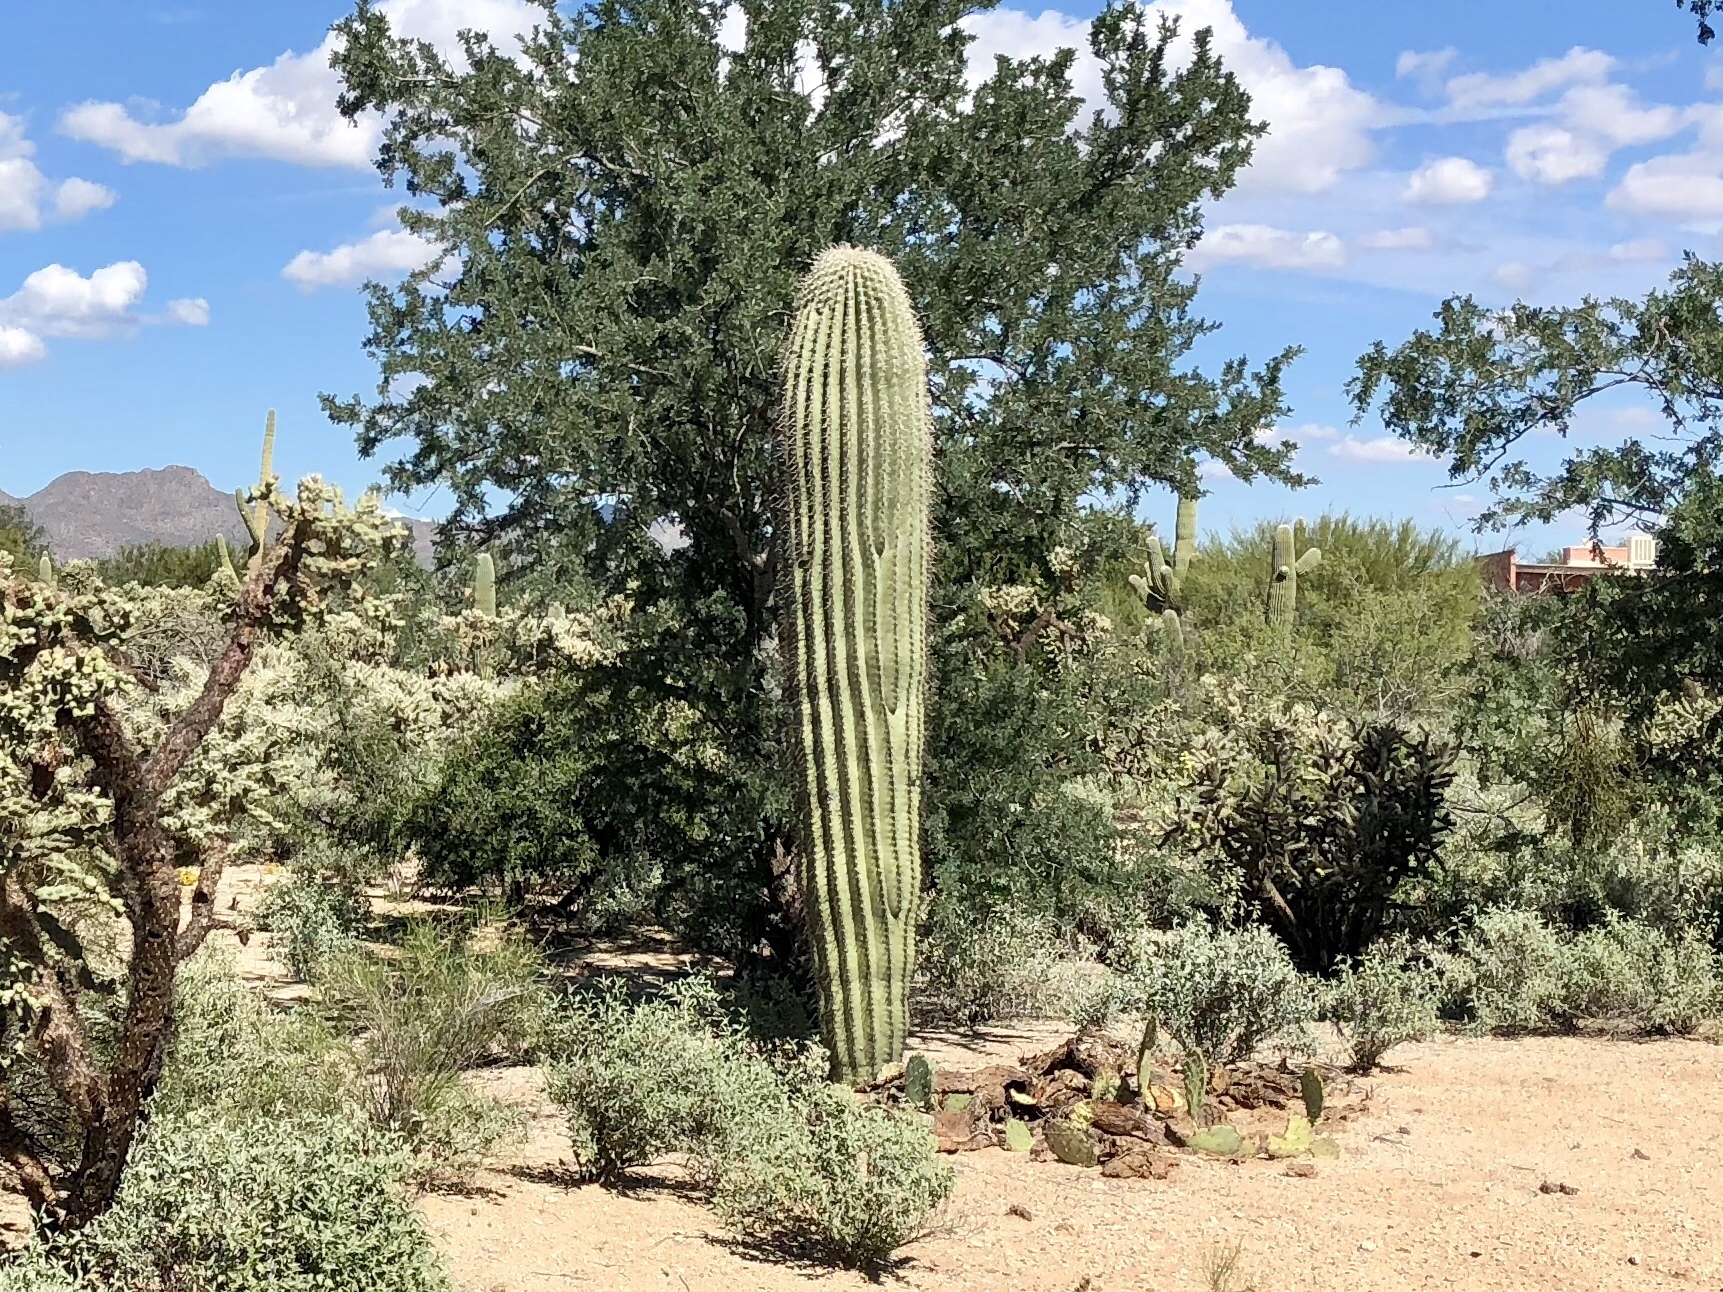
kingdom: Plantae
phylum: Tracheophyta
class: Magnoliopsida
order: Caryophyllales
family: Cactaceae
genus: Carnegiea
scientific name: Carnegiea gigantea
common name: Saguaro
